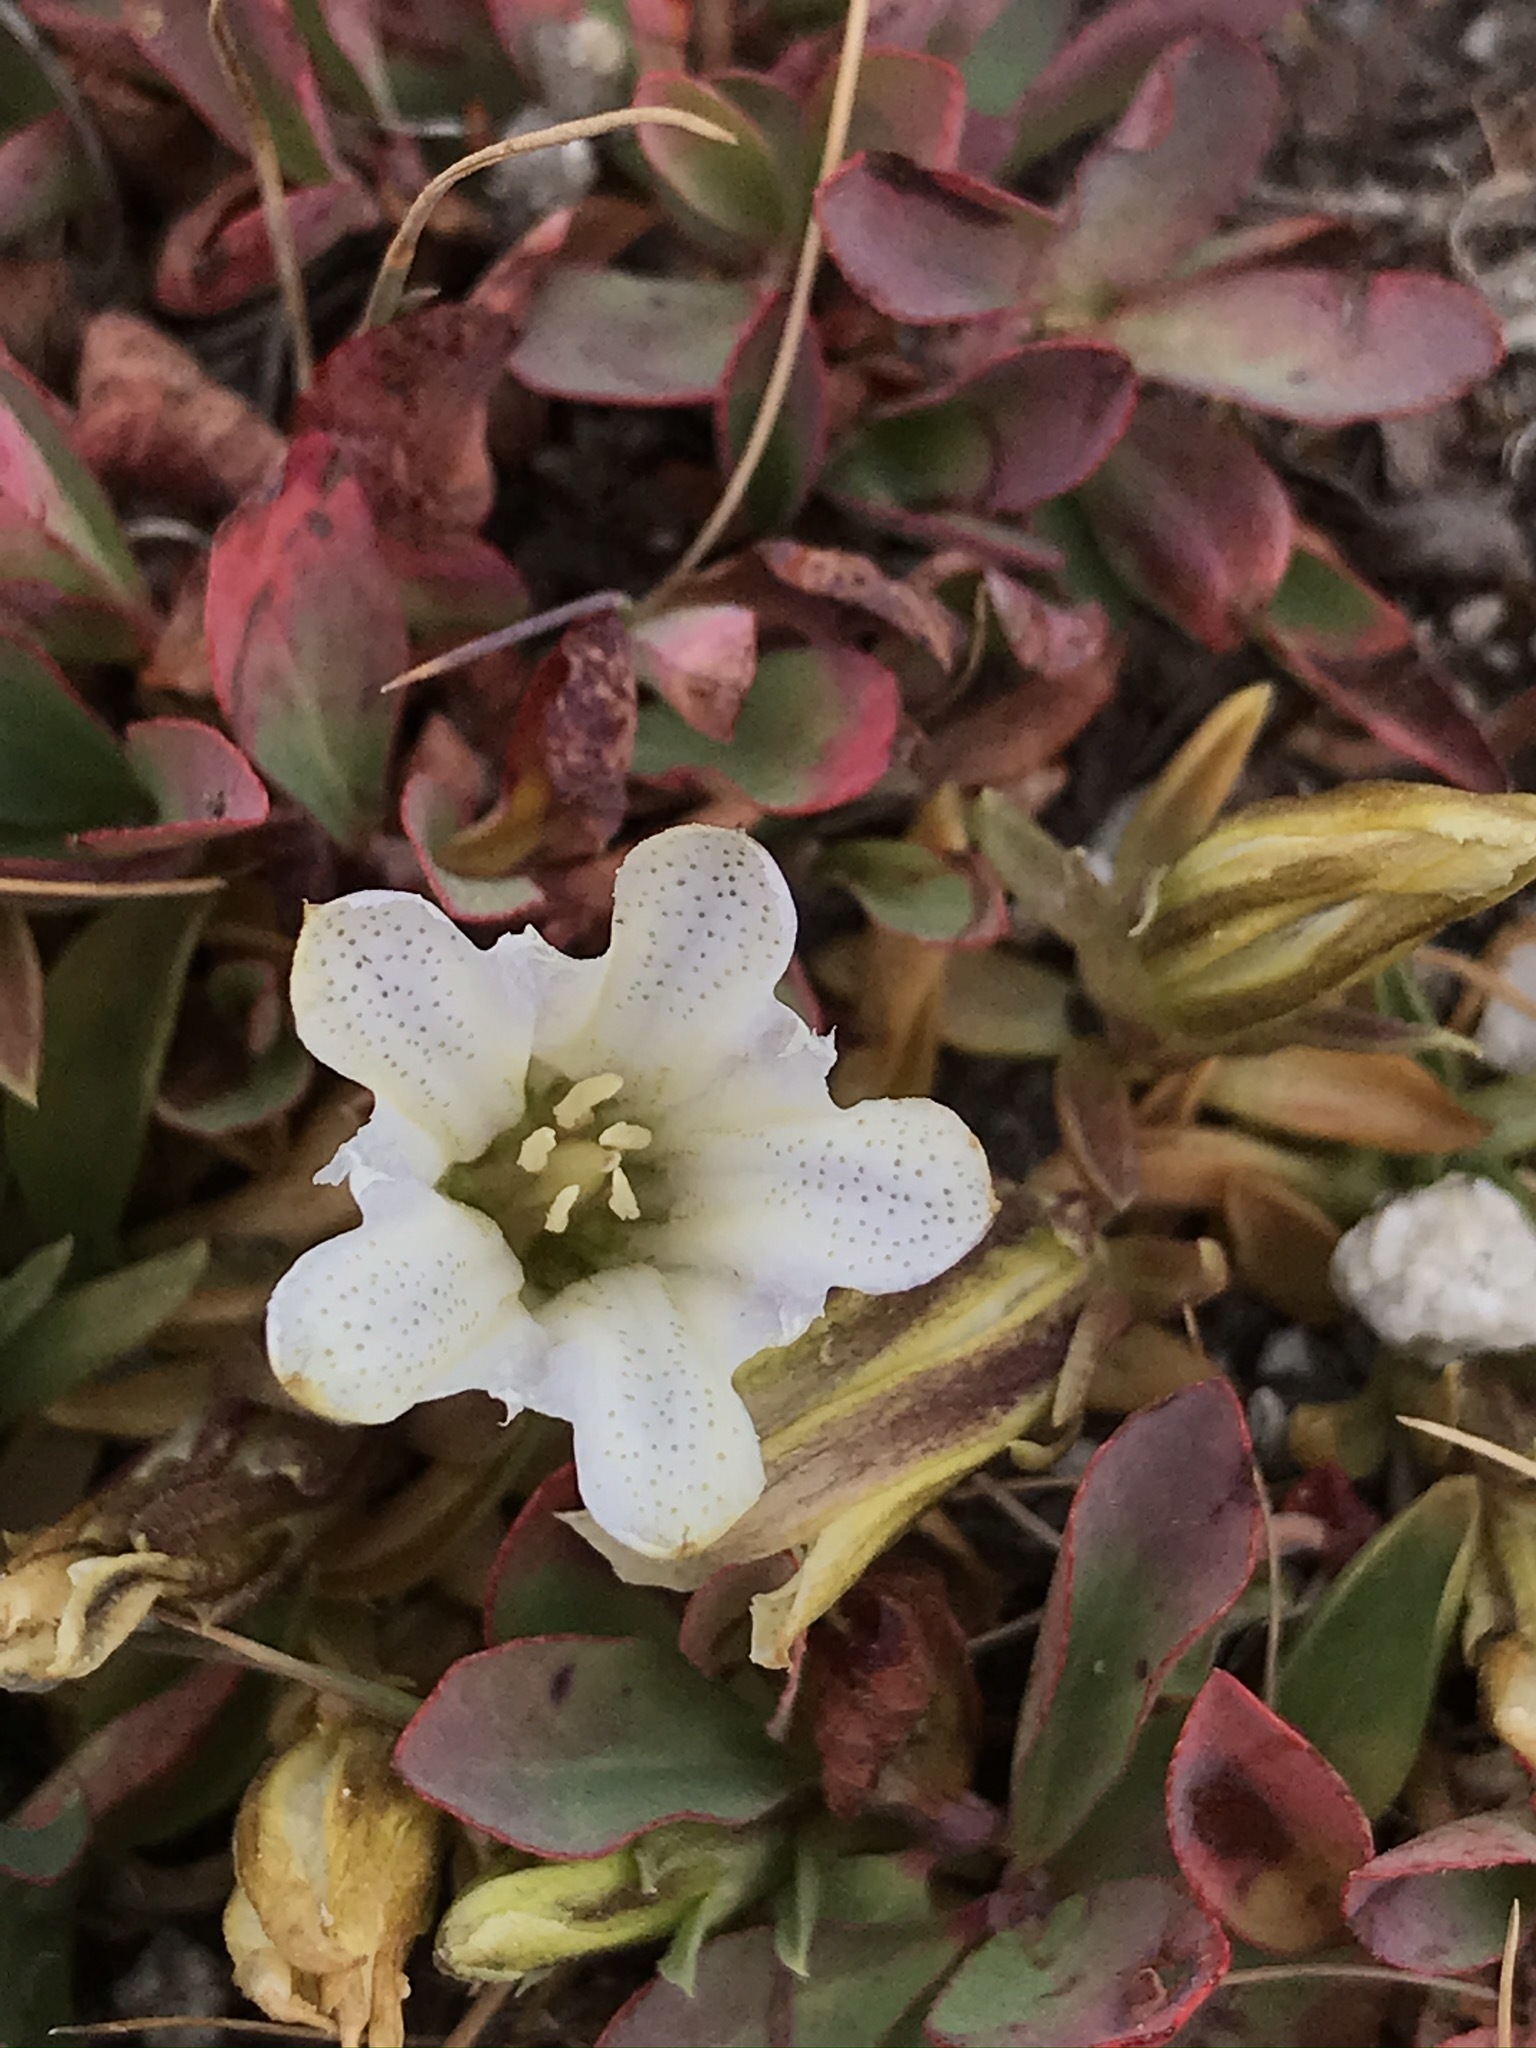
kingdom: Plantae
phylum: Tracheophyta
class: Magnoliopsida
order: Gentianales
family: Gentianaceae
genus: Gentiana
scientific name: Gentiana newberryi
